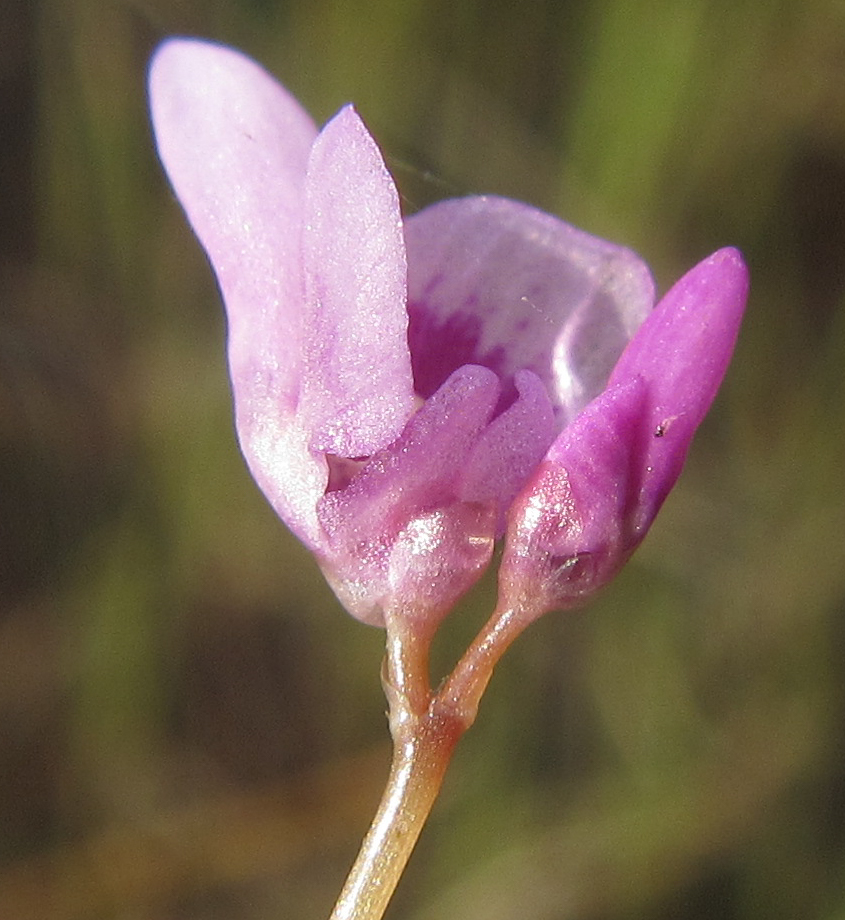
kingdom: Plantae
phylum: Tracheophyta
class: Magnoliopsida
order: Lamiales
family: Lentibulariaceae
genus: Utricularia
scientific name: Utricularia benjaminiana
